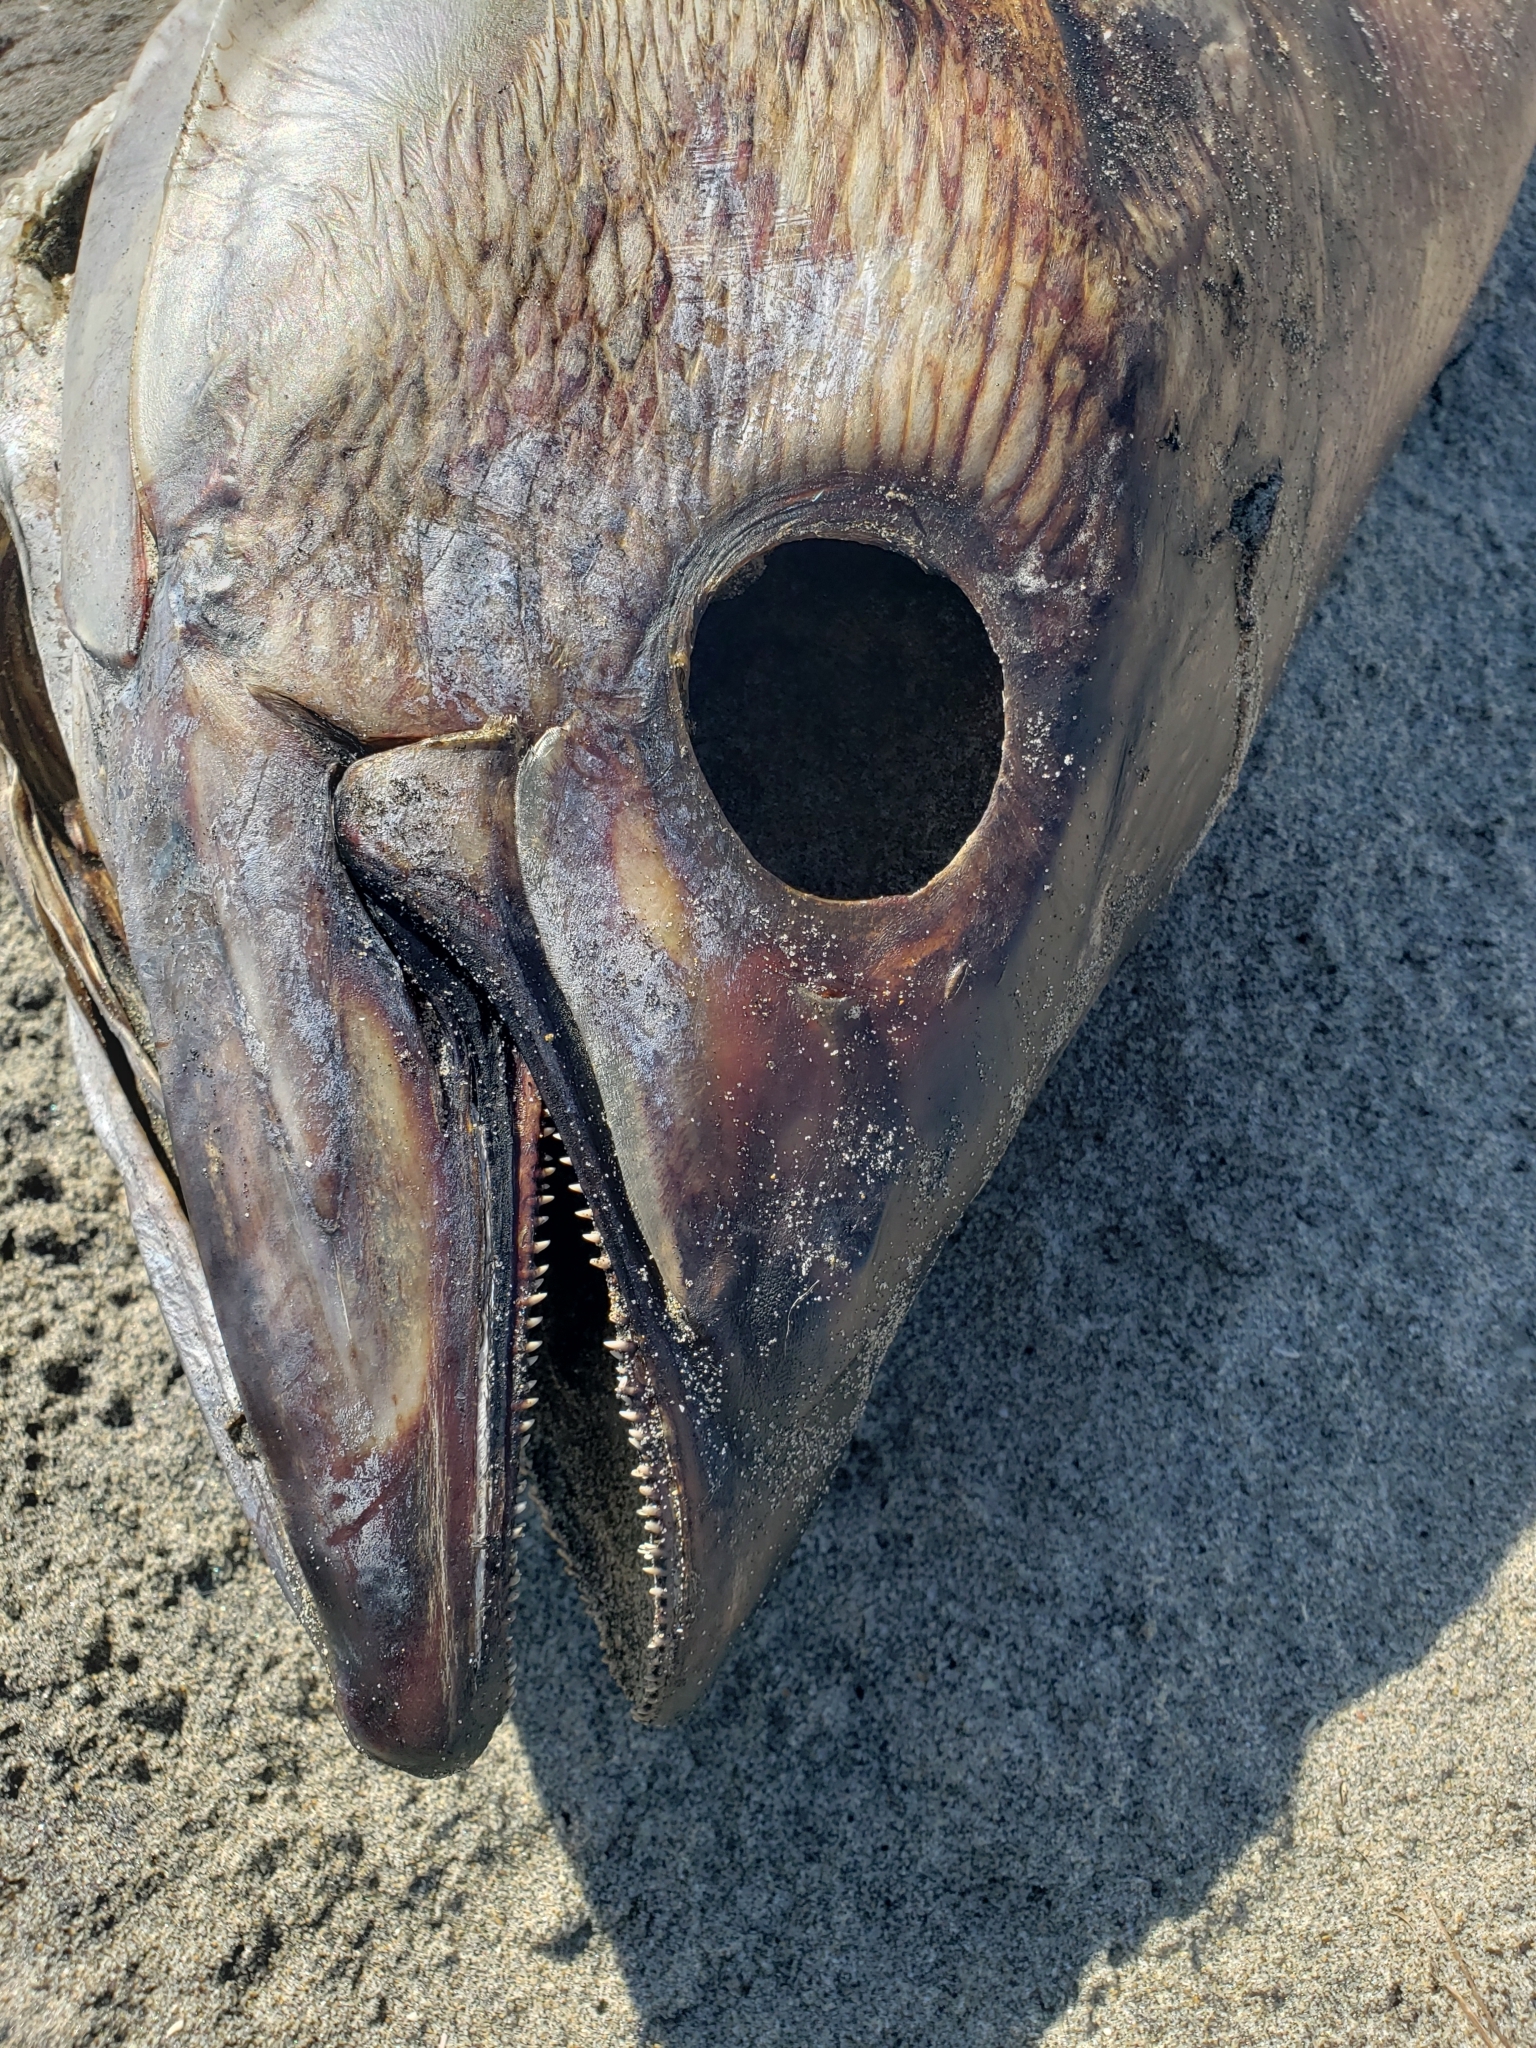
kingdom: Animalia
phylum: Chordata
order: Perciformes
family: Scombridae
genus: Thunnus
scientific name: Thunnus orientalis
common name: Pacific bluefin tuna
